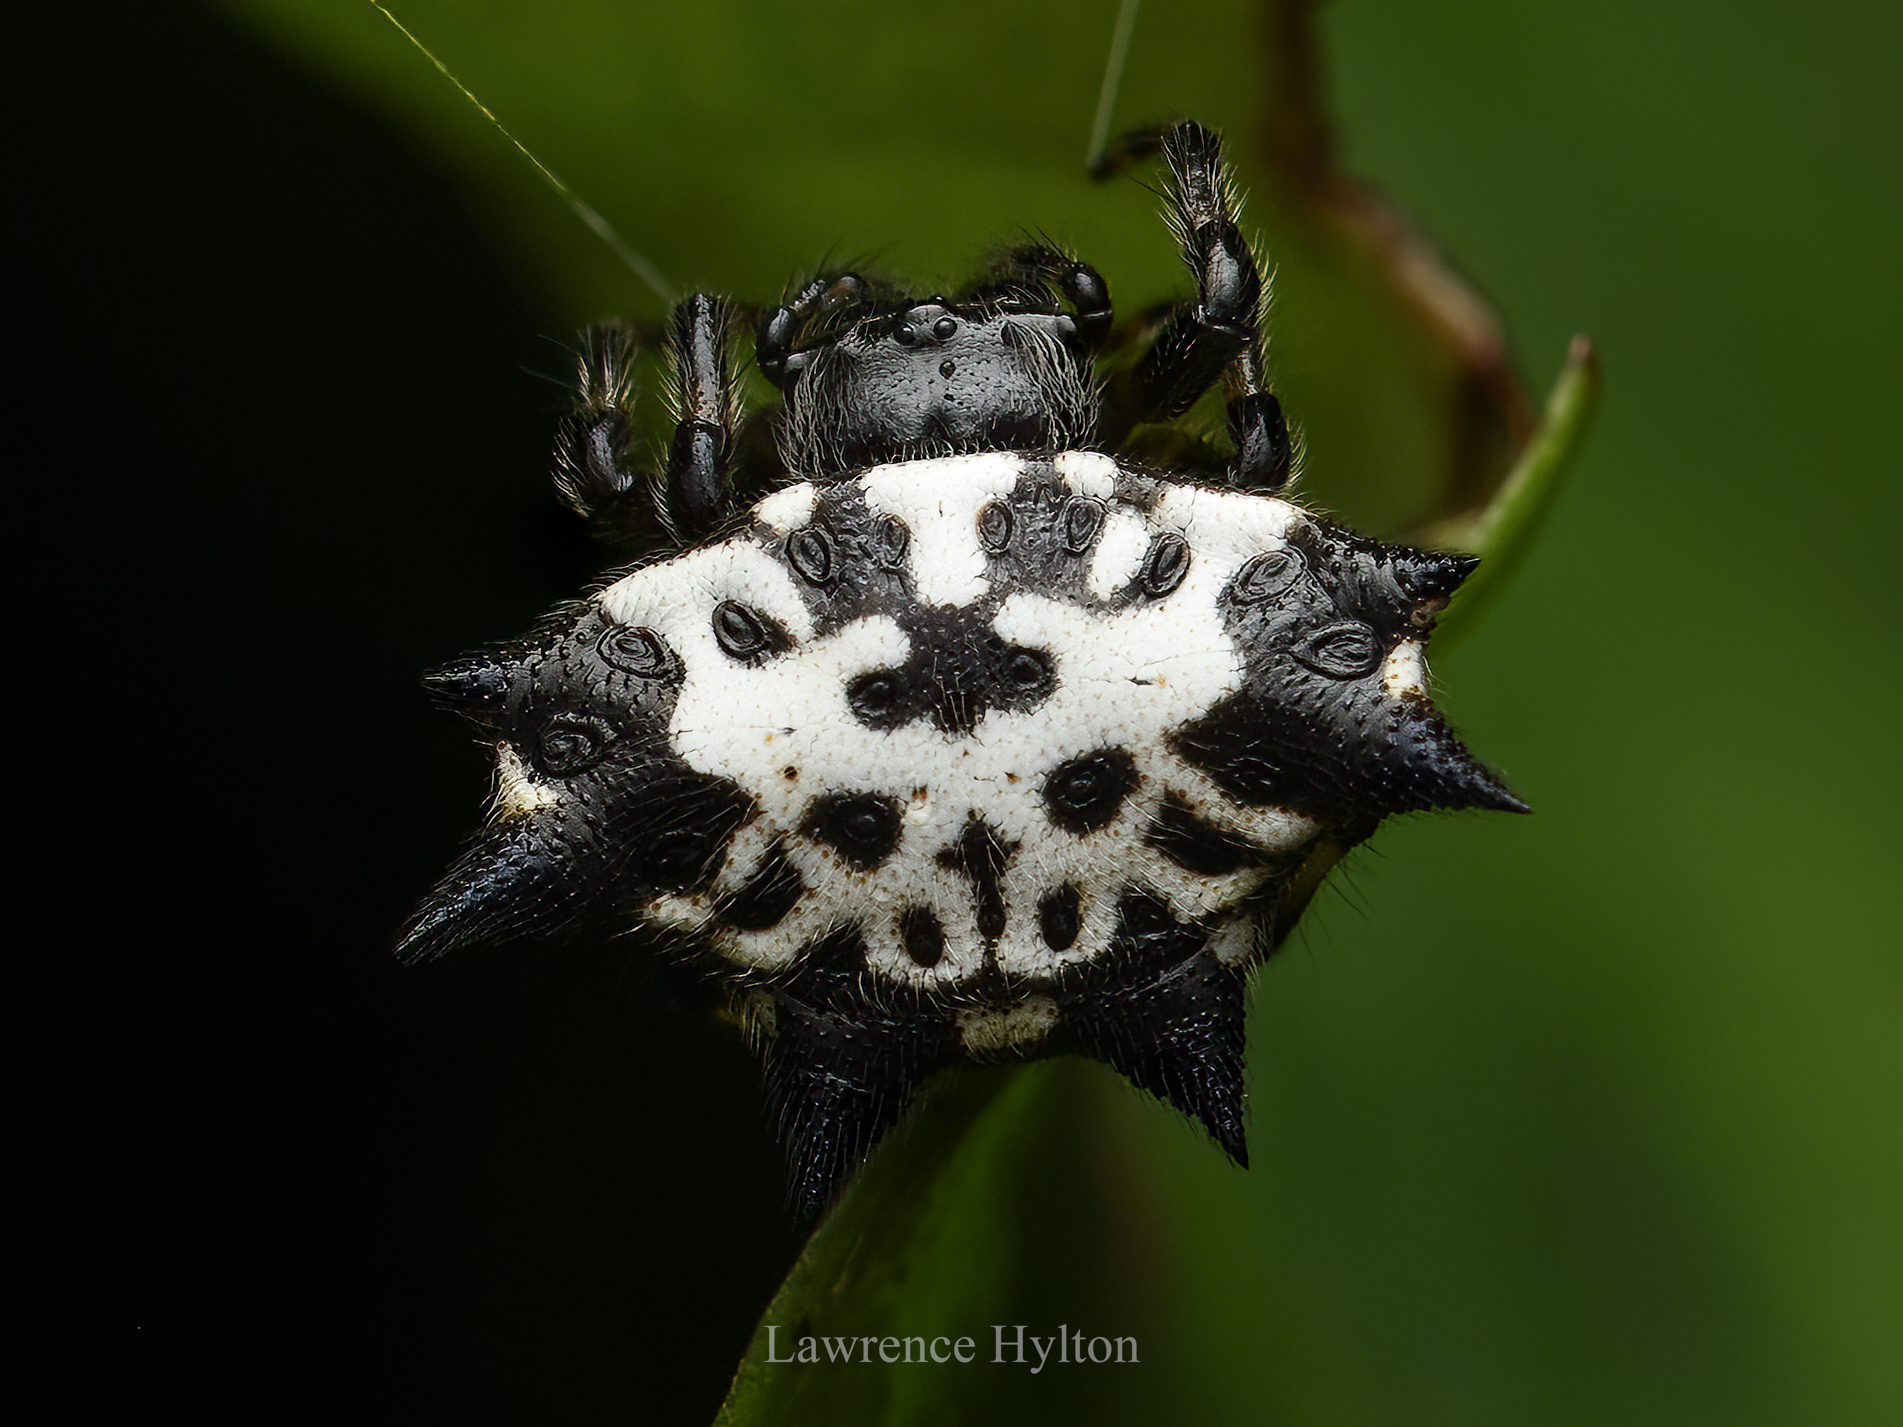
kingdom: Animalia
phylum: Arthropoda
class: Arachnida
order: Araneae
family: Araneidae
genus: Gasteracantha
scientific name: Gasteracantha kuhli
